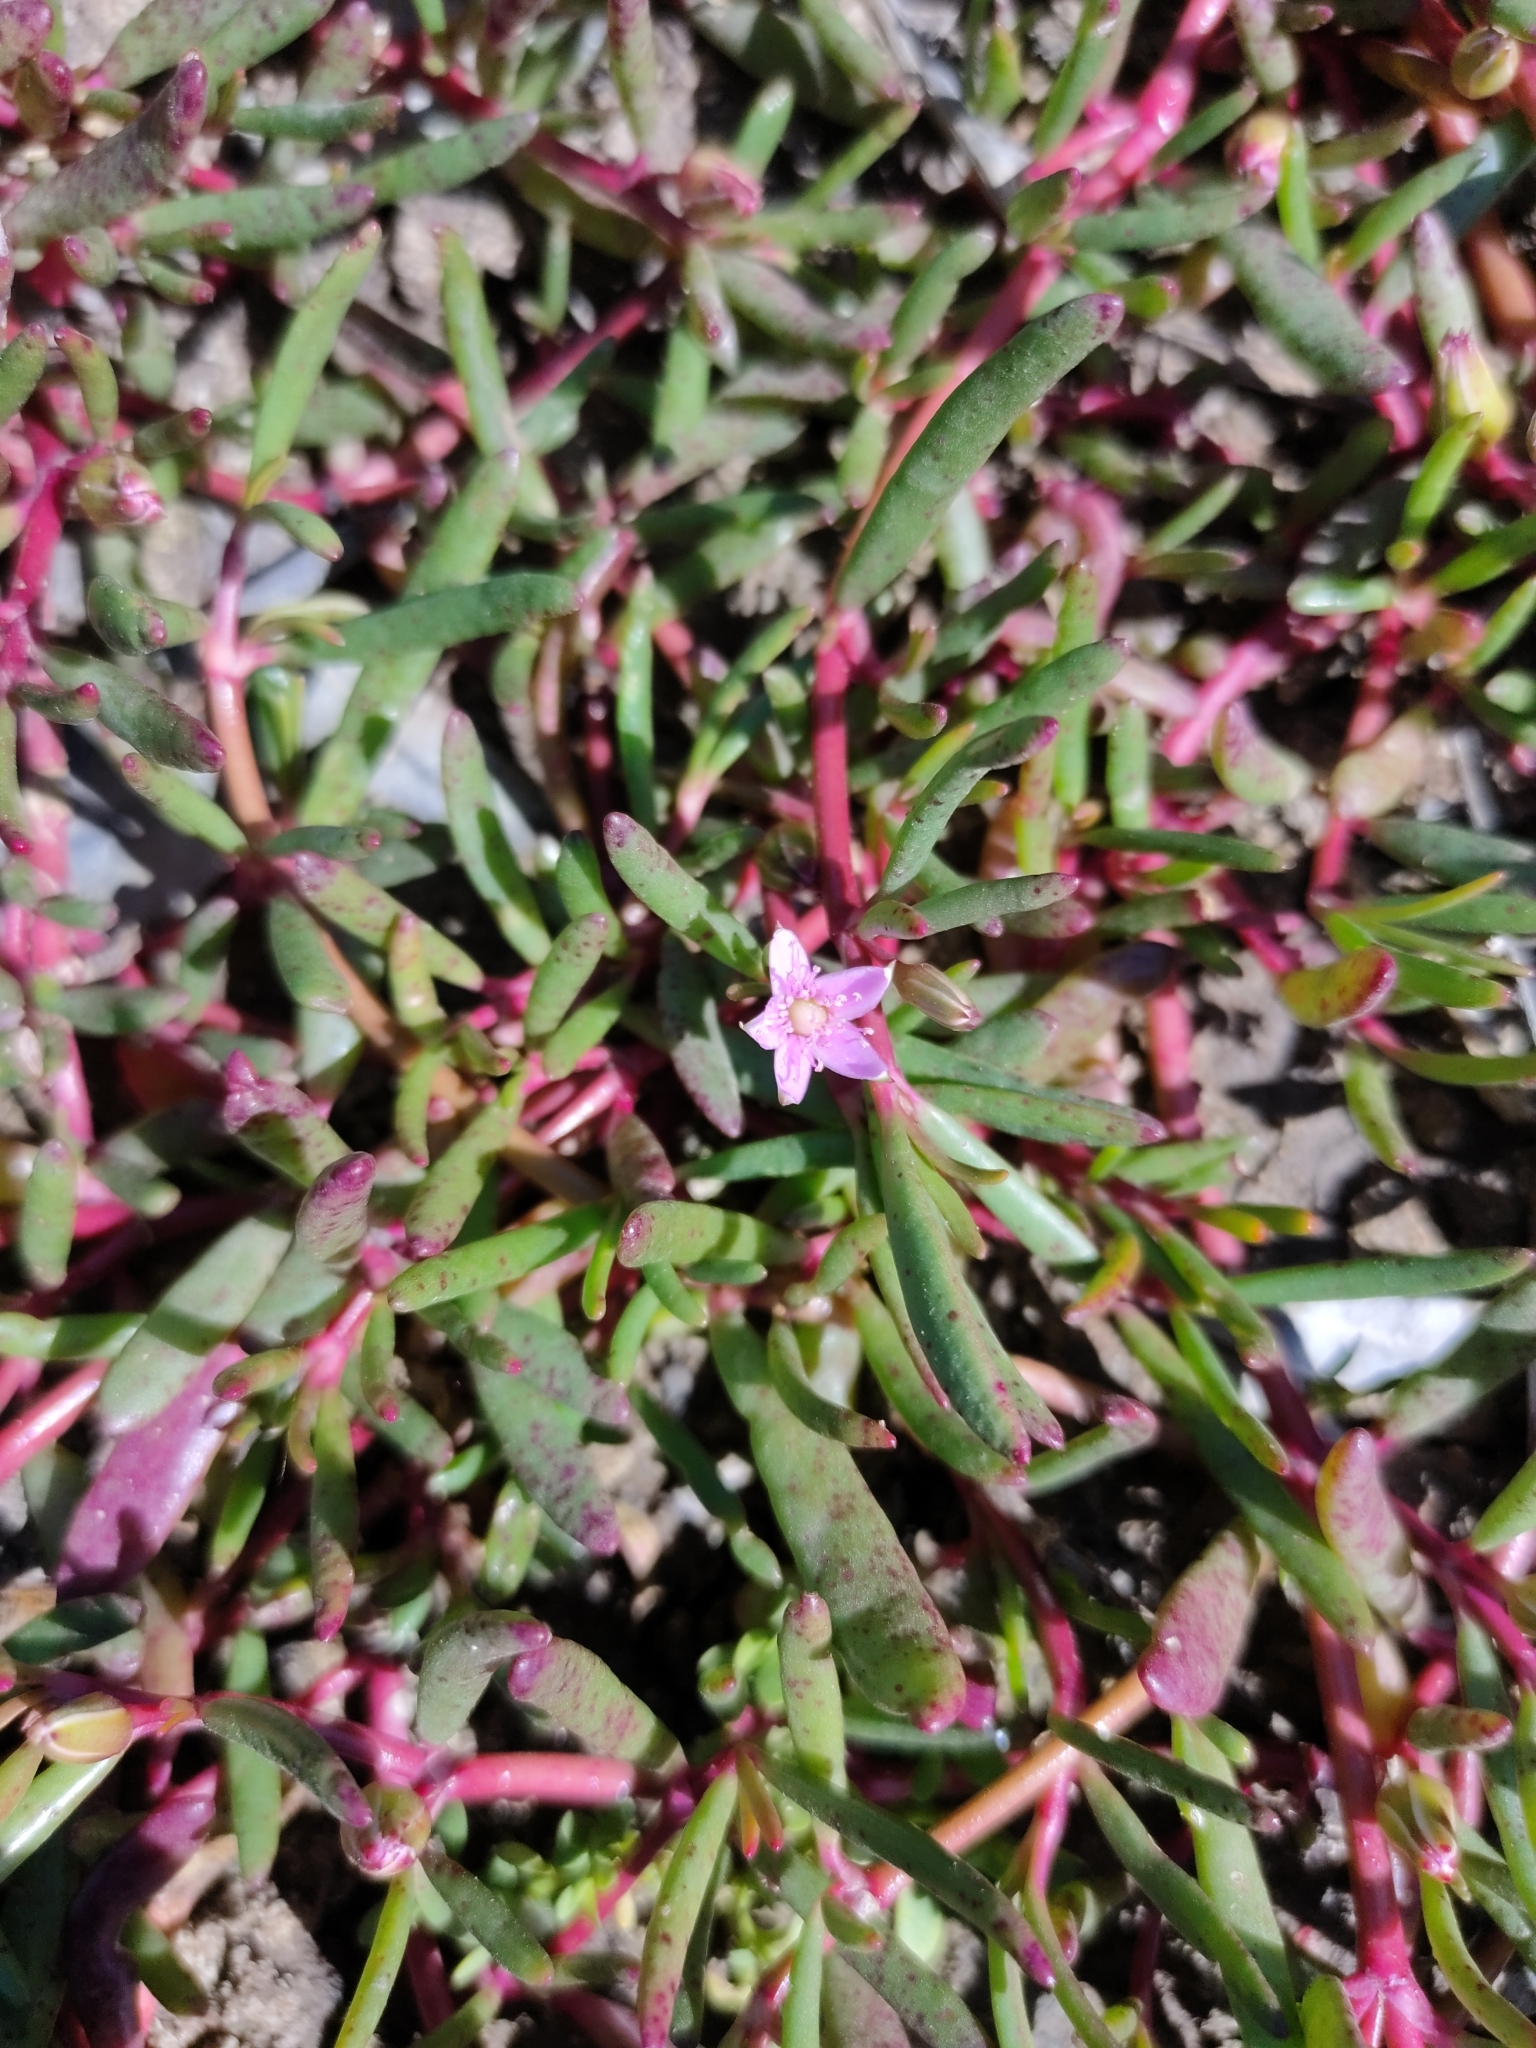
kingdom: Plantae
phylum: Tracheophyta
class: Magnoliopsida
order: Caryophyllales
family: Aizoaceae
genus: Sesuvium
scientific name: Sesuvium portulacastrum
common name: Sea-purslane
